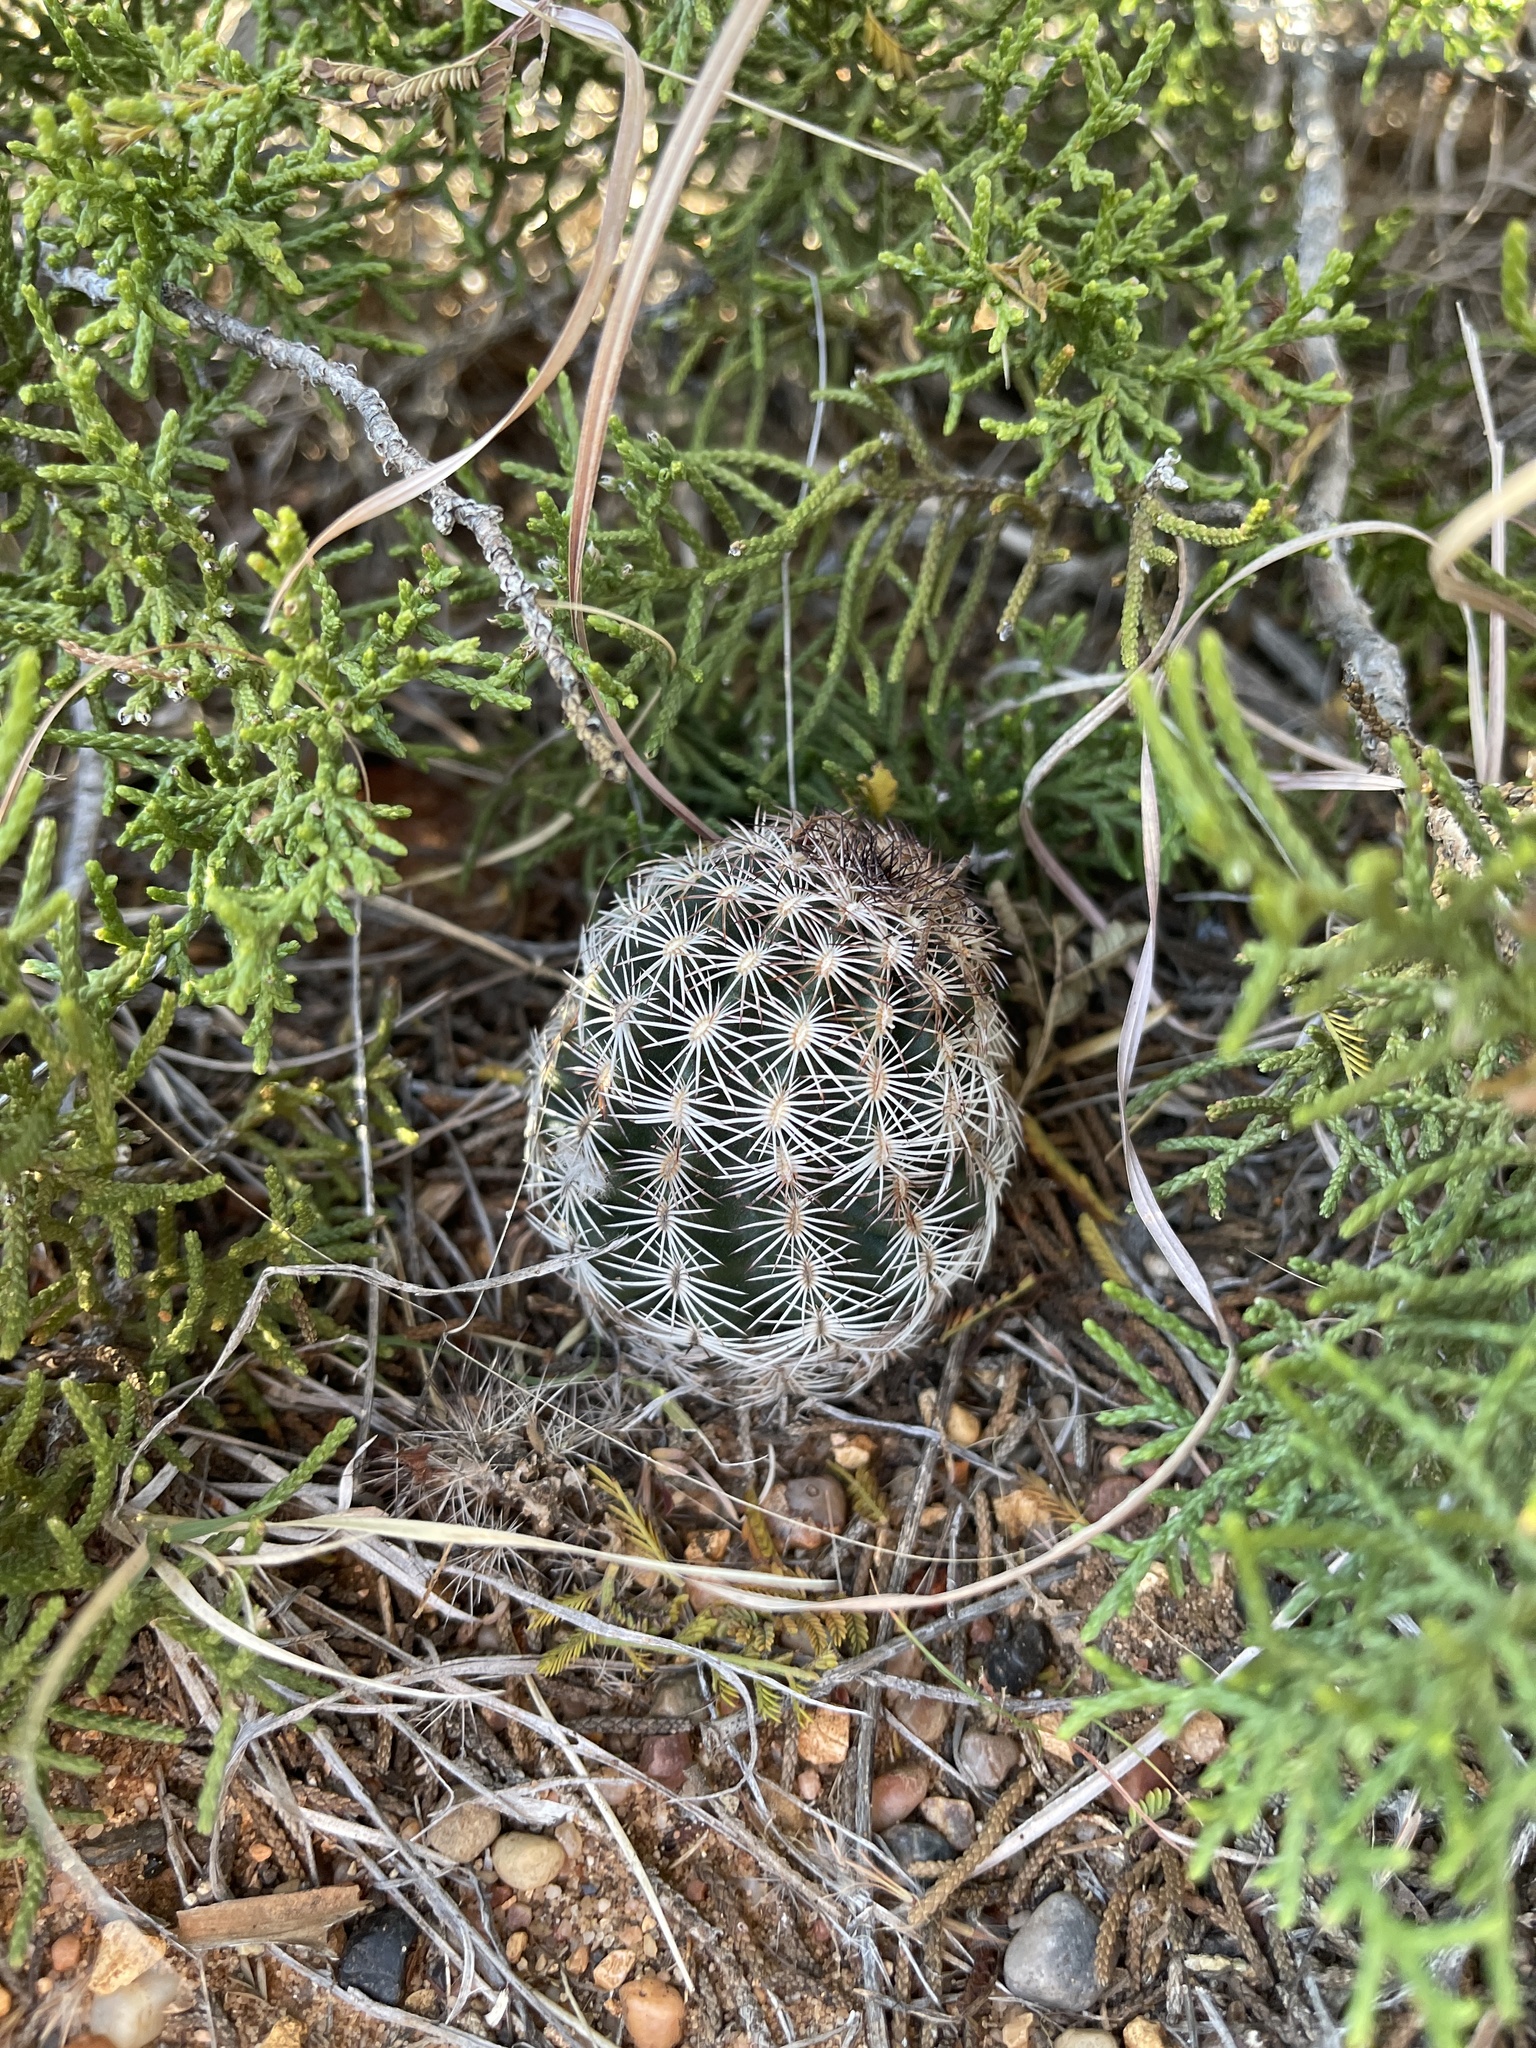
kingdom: Plantae
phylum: Tracheophyta
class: Magnoliopsida
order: Caryophyllales
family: Cactaceae
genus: Echinocereus
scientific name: Echinocereus reichenbachii
